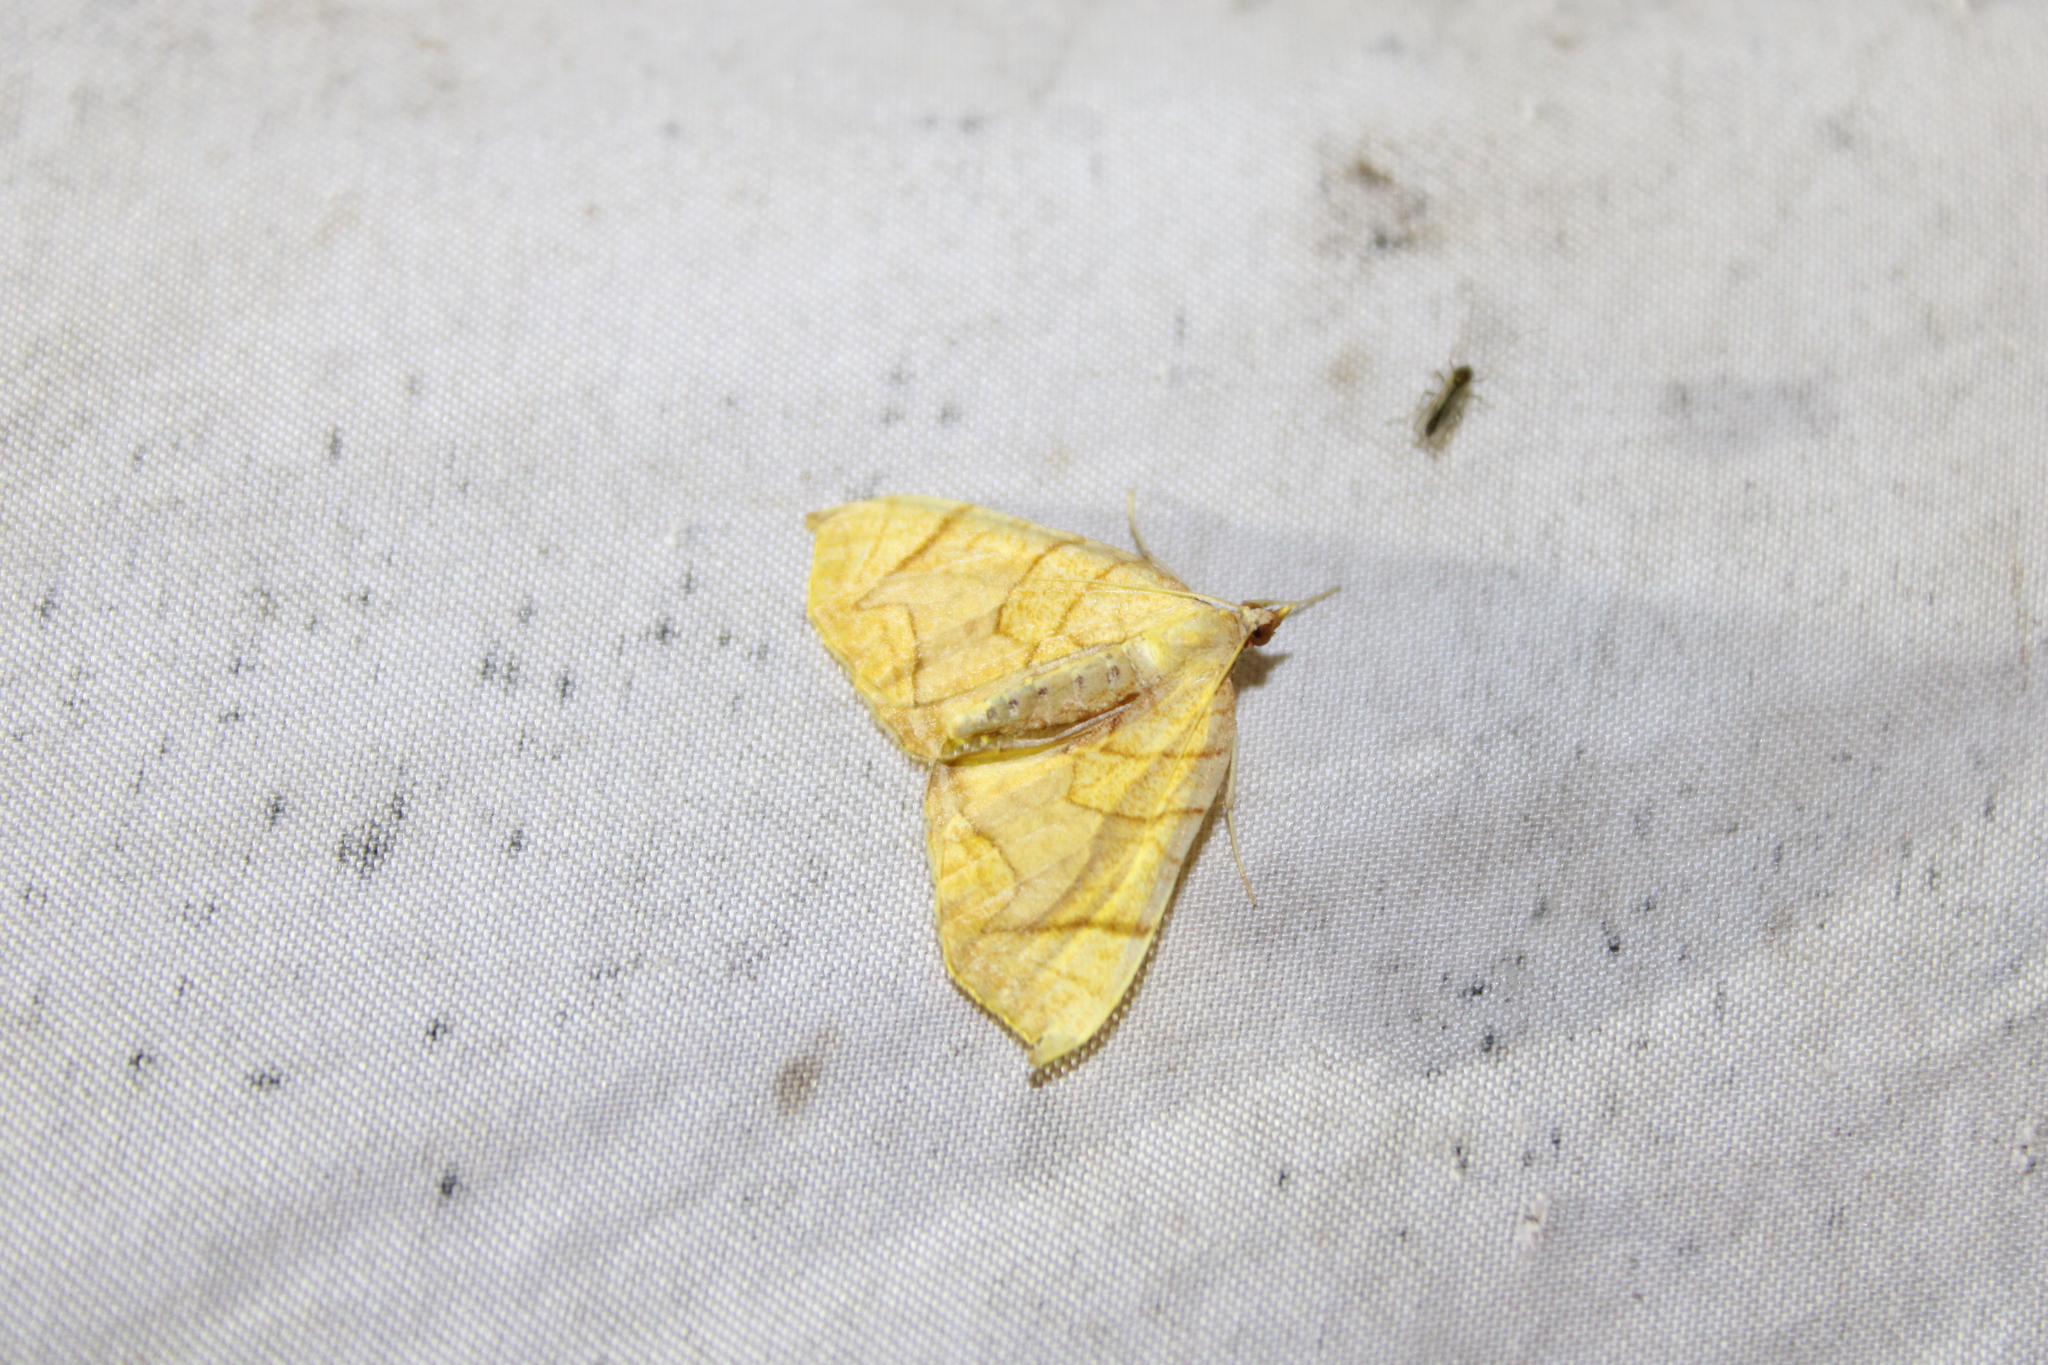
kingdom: Animalia
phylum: Arthropoda
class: Insecta
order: Lepidoptera
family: Geometridae
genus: Eulithis
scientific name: Eulithis
